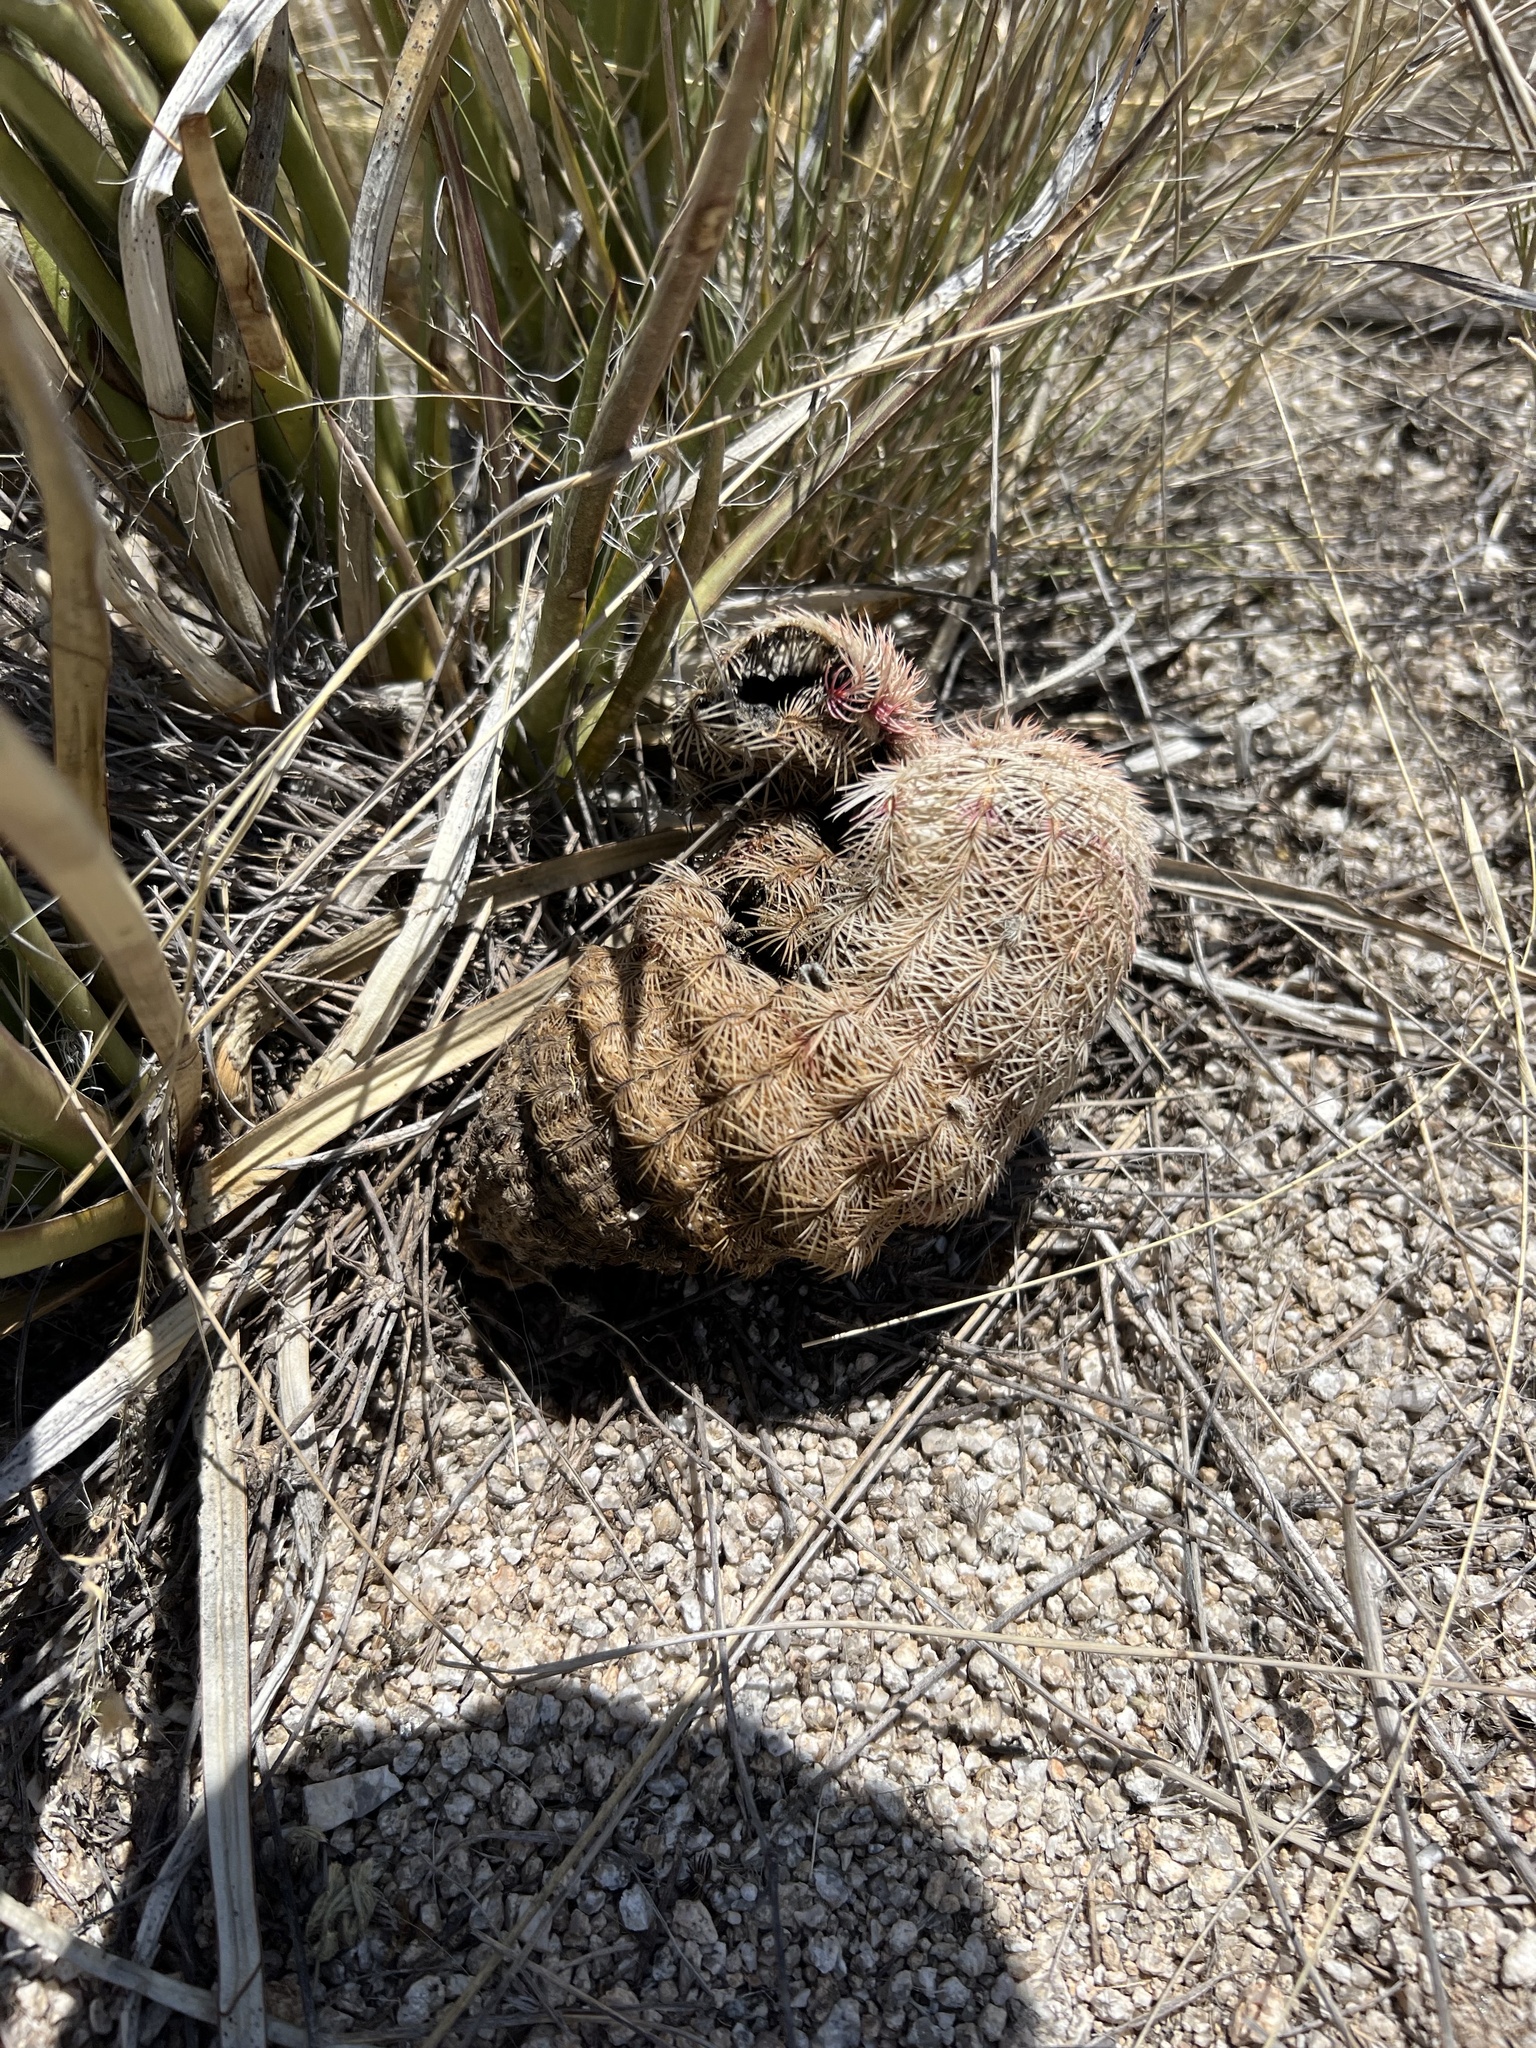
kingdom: Plantae
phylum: Tracheophyta
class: Magnoliopsida
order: Caryophyllales
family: Cactaceae
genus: Echinocereus
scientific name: Echinocereus rigidissimus
